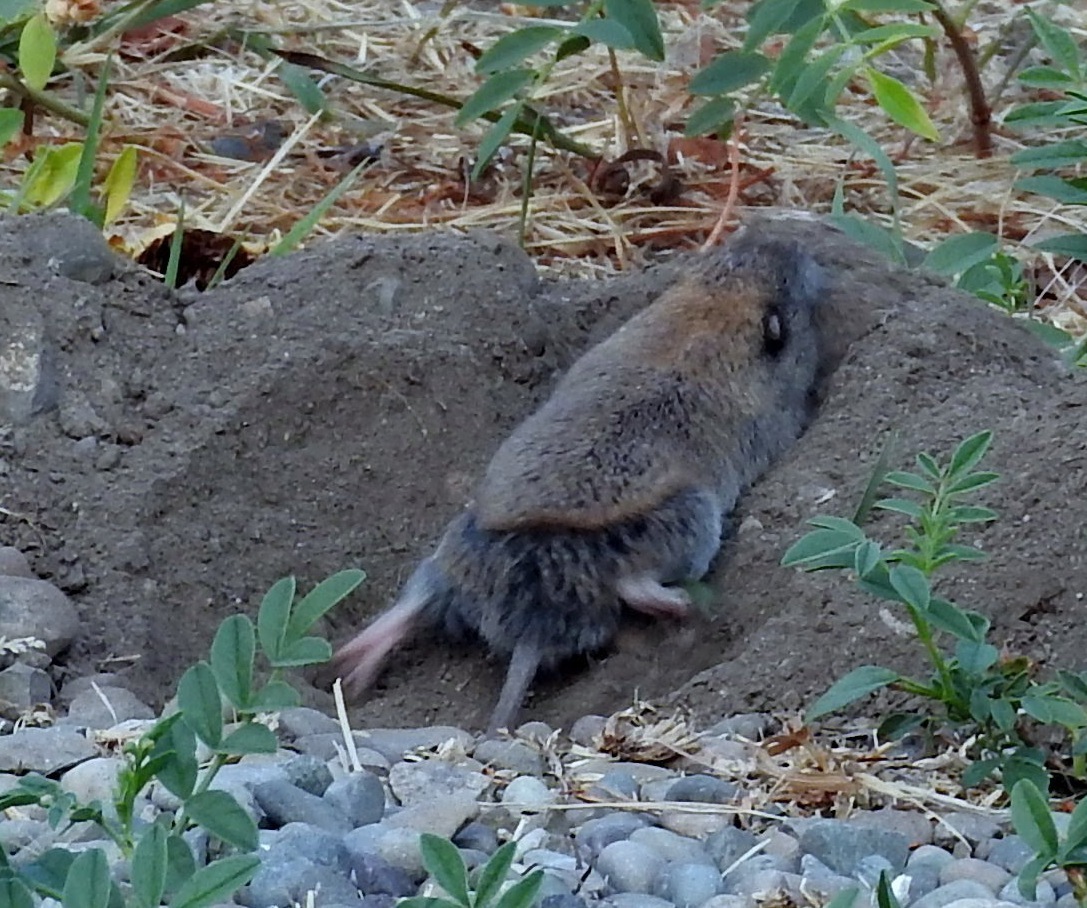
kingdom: Animalia
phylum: Chordata
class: Mammalia
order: Rodentia
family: Geomyidae
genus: Thomomys
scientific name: Thomomys talpoides
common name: Northern pocket gopher
